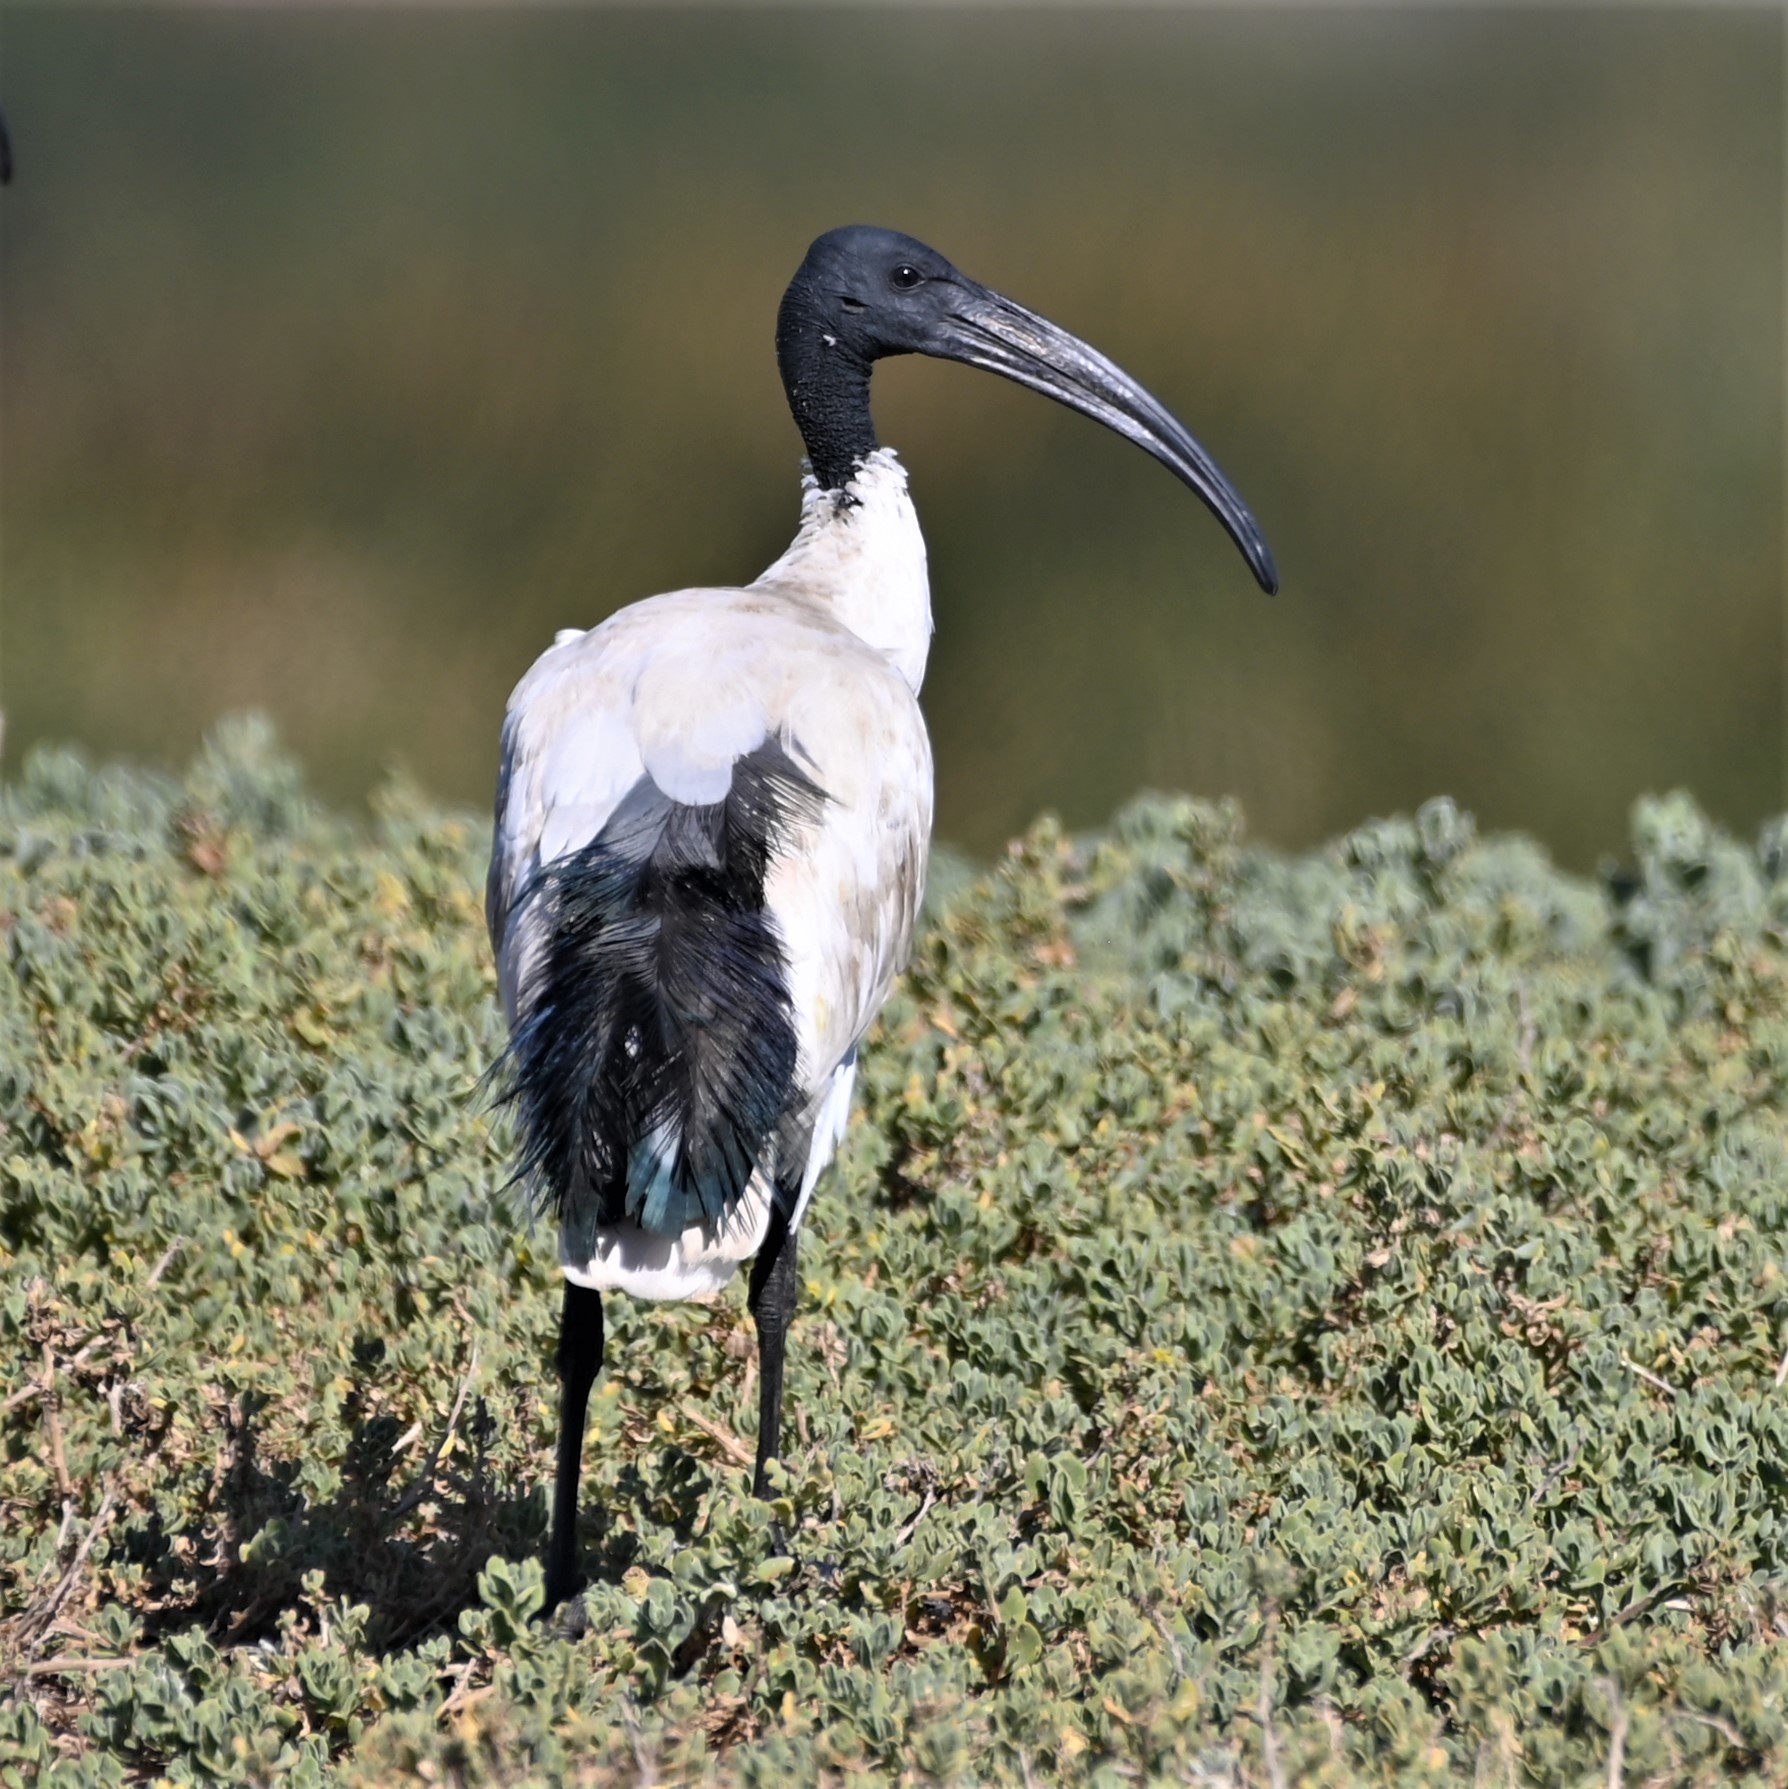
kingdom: Animalia
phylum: Chordata
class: Aves
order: Pelecaniformes
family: Threskiornithidae
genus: Threskiornis
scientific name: Threskiornis aethiopicus
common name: Sacred ibis
